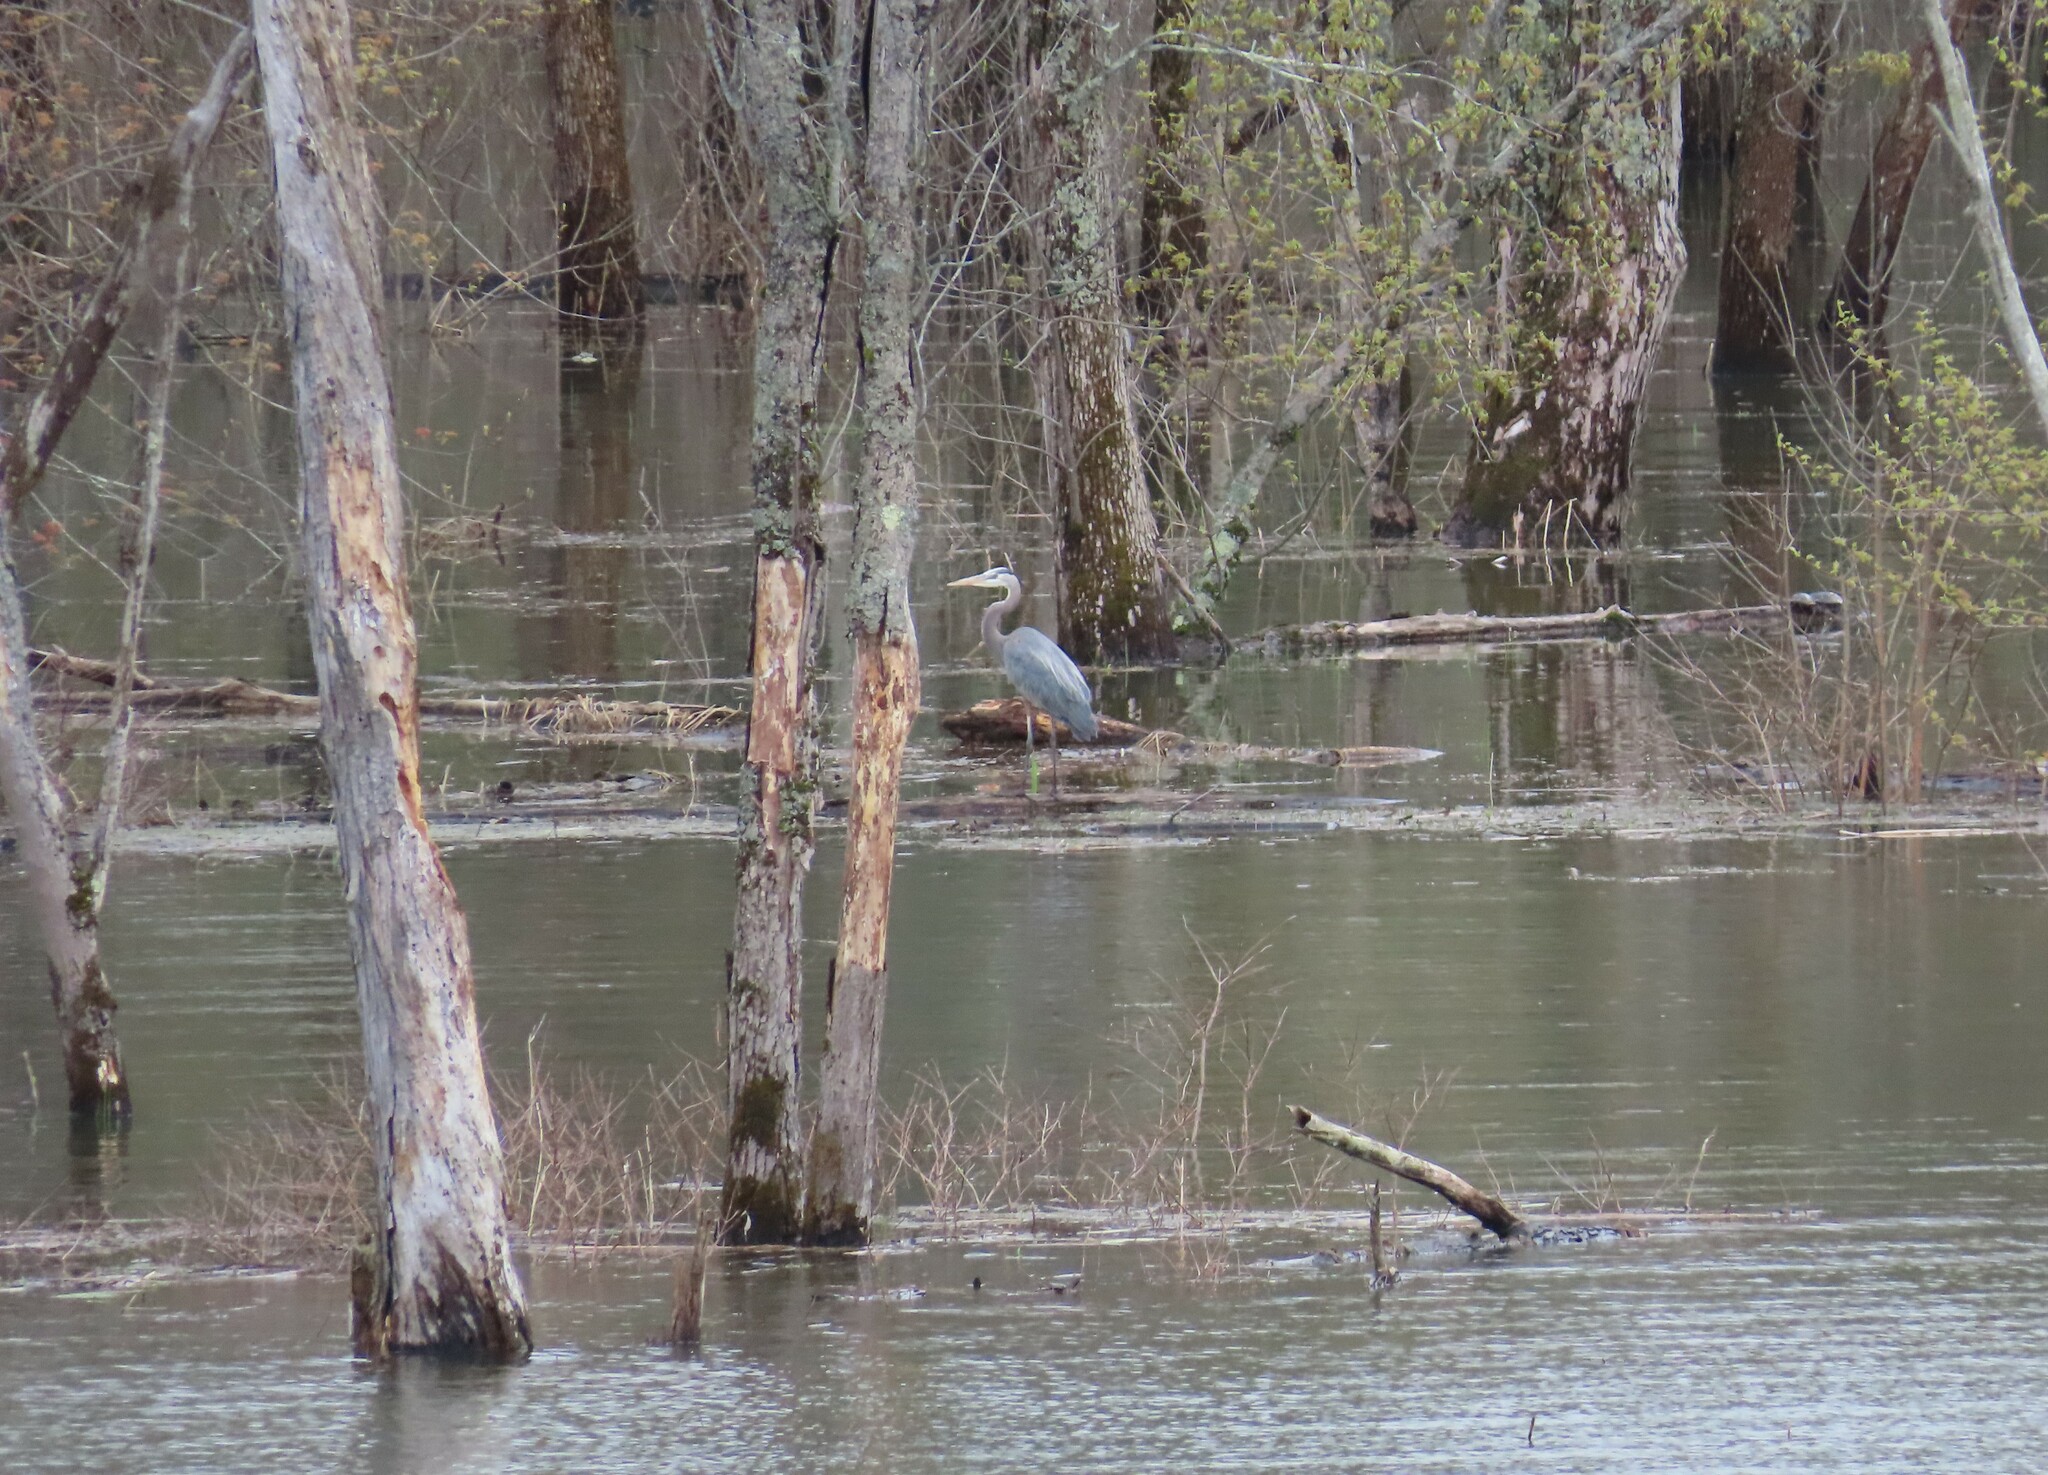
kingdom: Animalia
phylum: Chordata
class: Aves
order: Pelecaniformes
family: Ardeidae
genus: Ardea
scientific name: Ardea herodias
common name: Great blue heron
